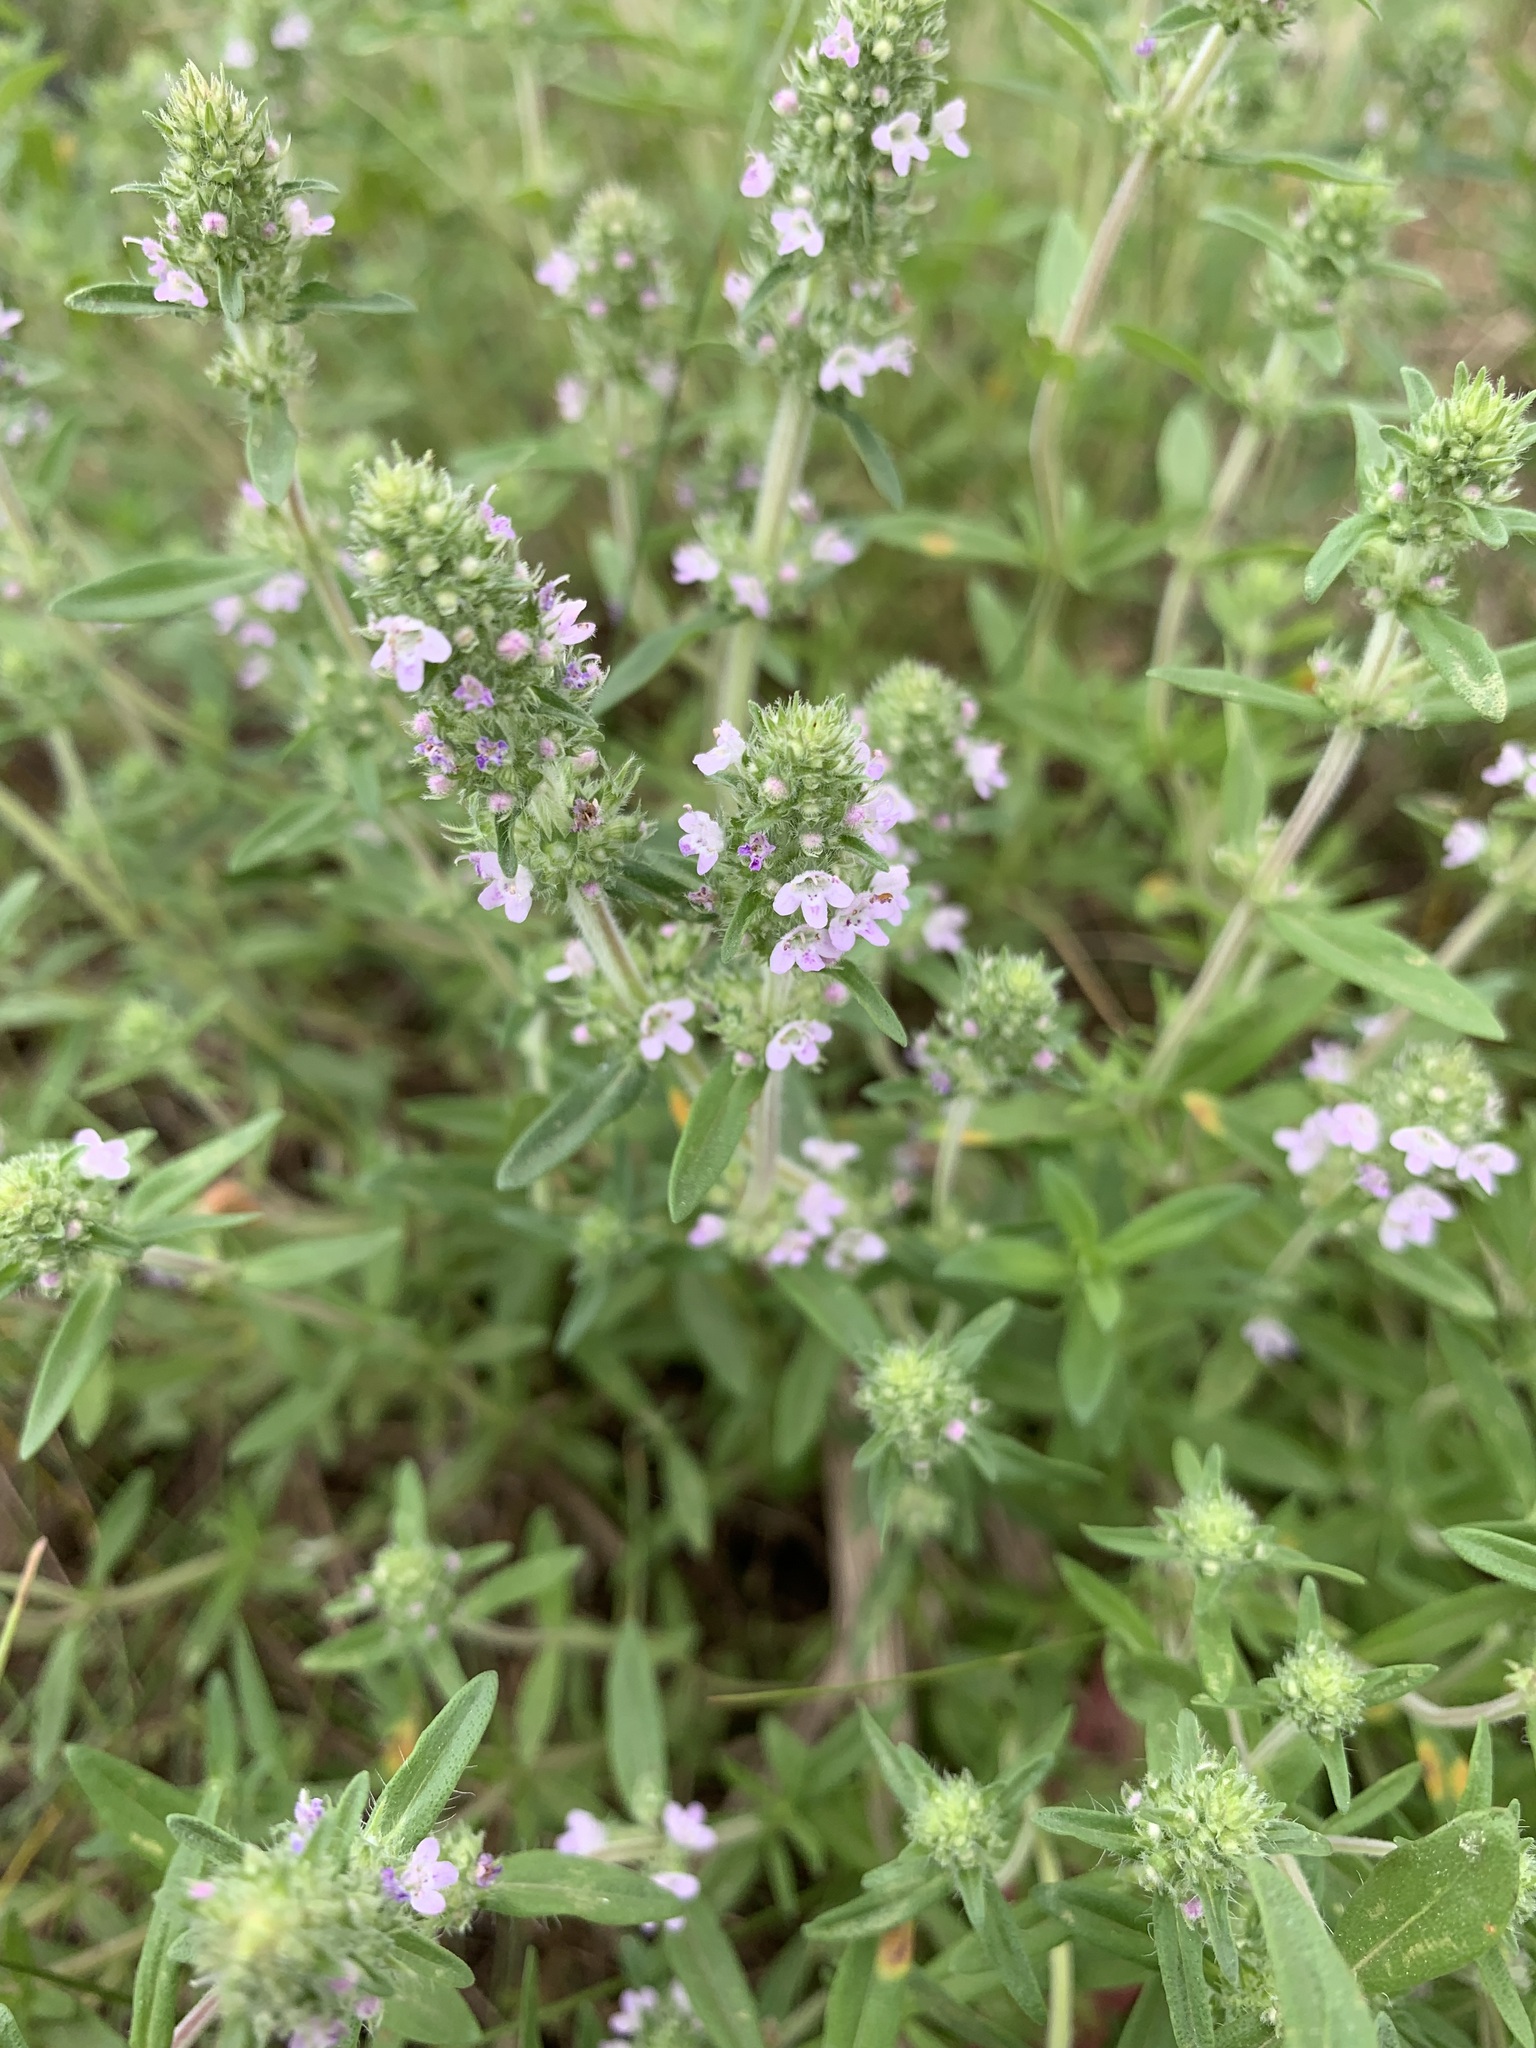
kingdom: Plantae
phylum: Tracheophyta
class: Magnoliopsida
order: Lamiales
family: Lamiaceae
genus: Thymus
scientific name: Thymus pannonicus
